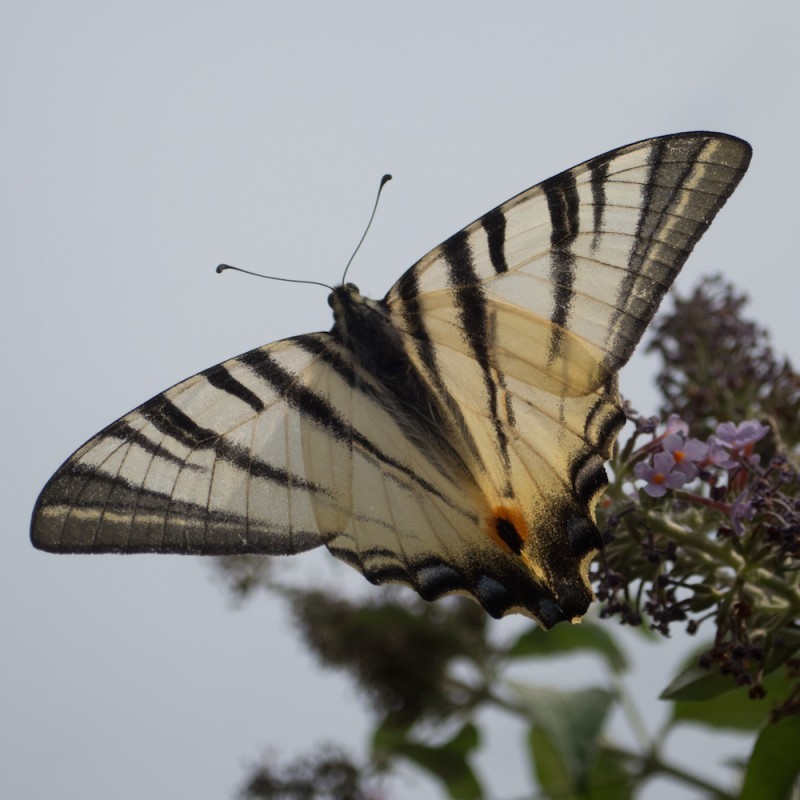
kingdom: Animalia
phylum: Arthropoda
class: Insecta
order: Lepidoptera
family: Papilionidae
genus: Iphiclides
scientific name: Iphiclides podalirius
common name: Scarce swallowtail
